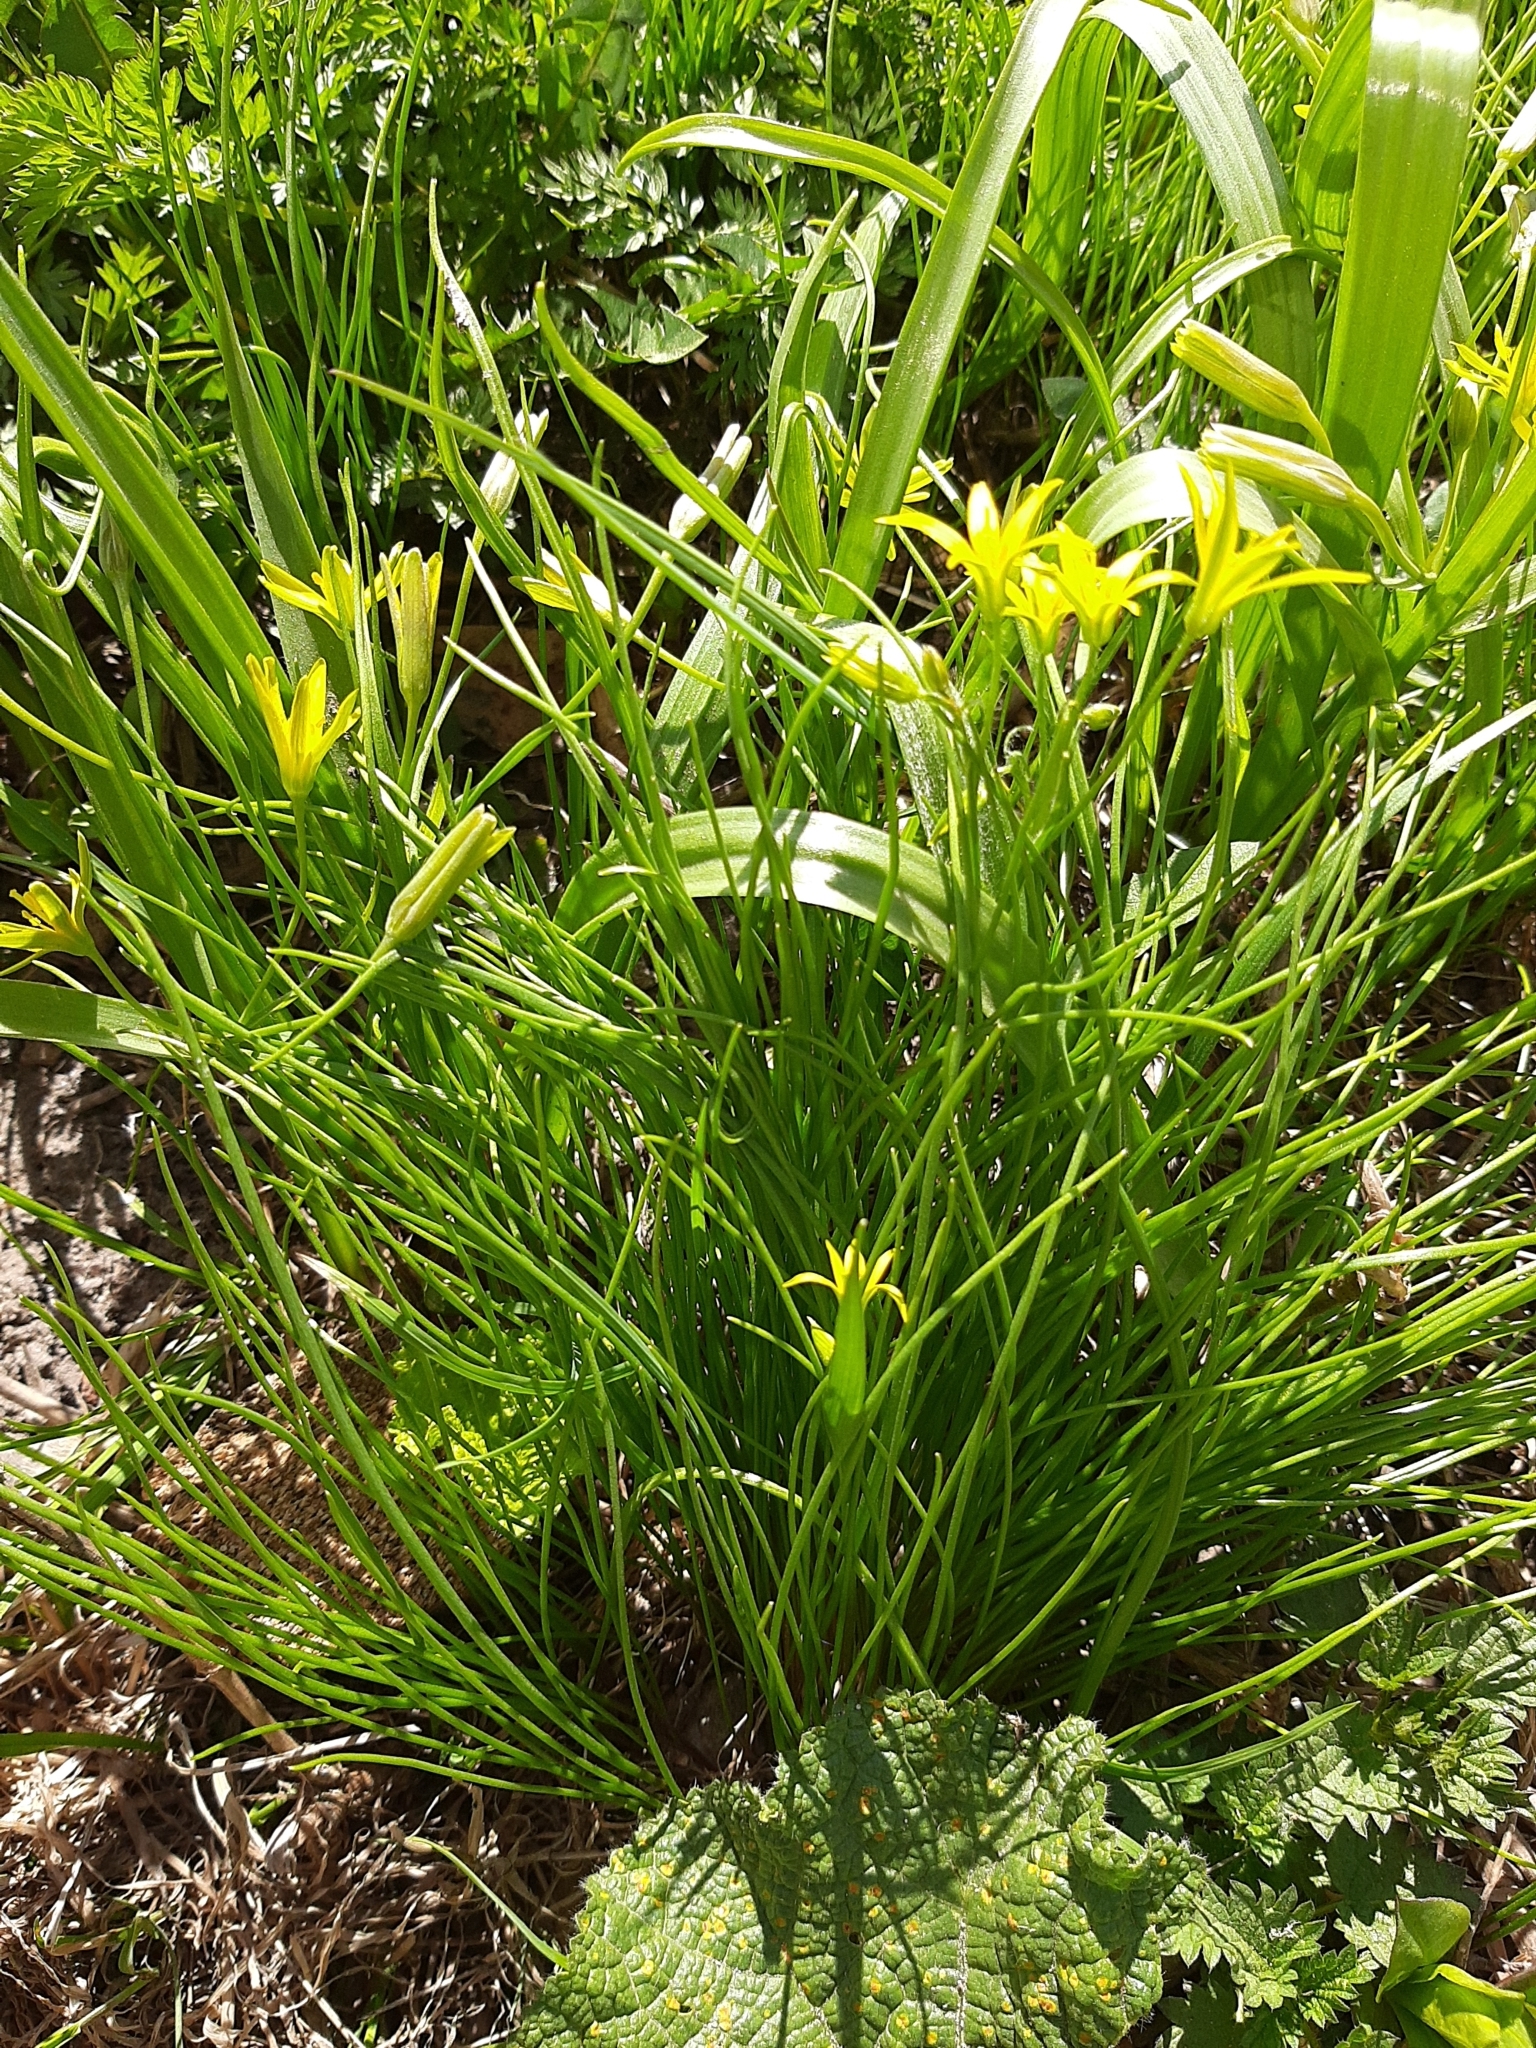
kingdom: Plantae
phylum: Tracheophyta
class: Liliopsida
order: Liliales
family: Liliaceae
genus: Gagea
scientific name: Gagea minima
